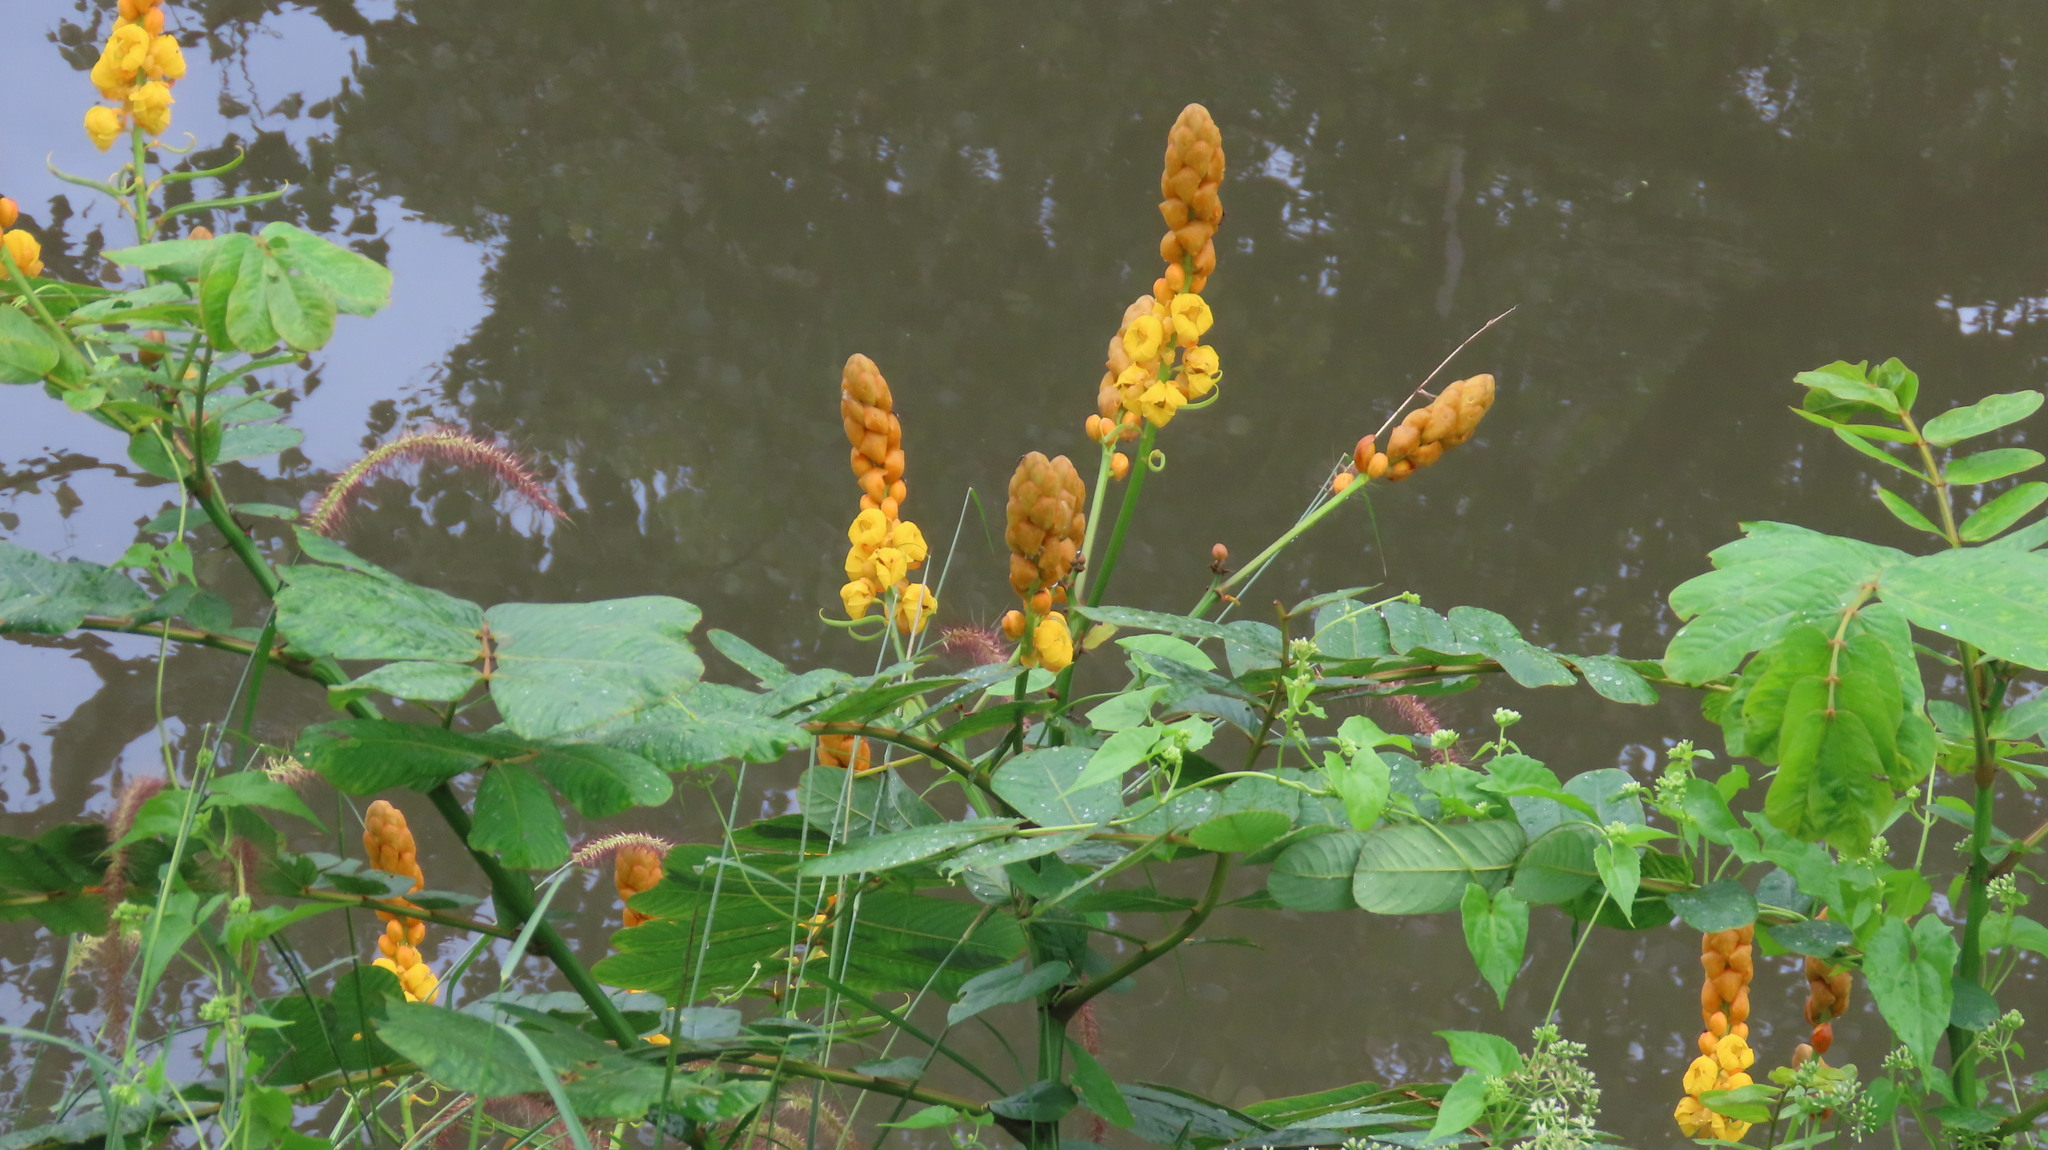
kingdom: Plantae
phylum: Tracheophyta
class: Magnoliopsida
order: Fabales
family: Fabaceae
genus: Senna
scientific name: Senna alata
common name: Emperor's candlesticks
